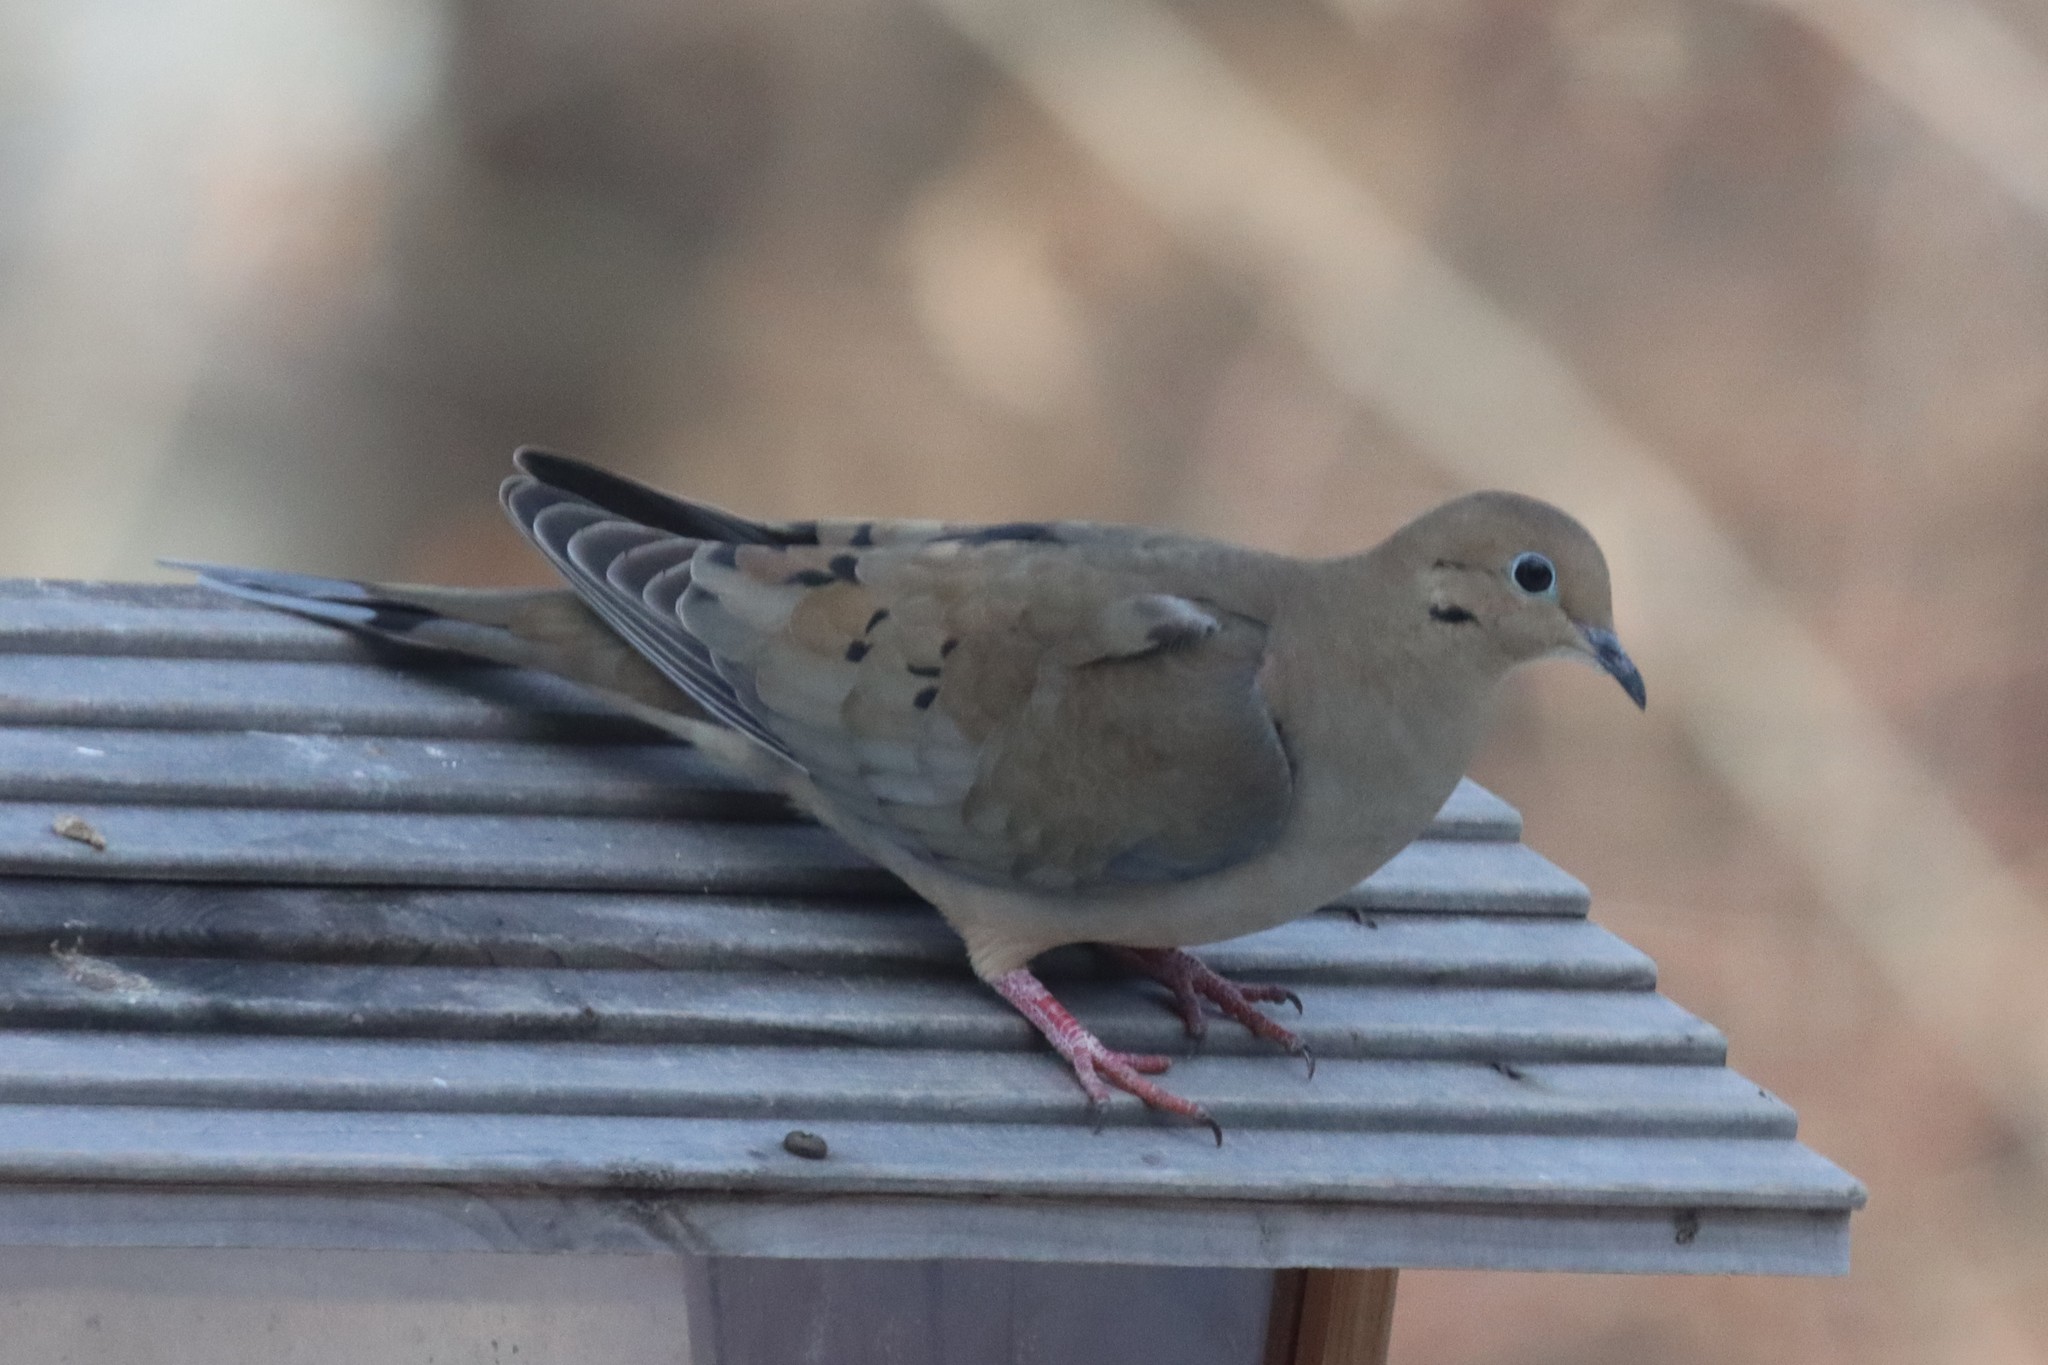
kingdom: Animalia
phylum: Chordata
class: Aves
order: Columbiformes
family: Columbidae
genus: Zenaida
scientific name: Zenaida macroura
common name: Mourning dove
